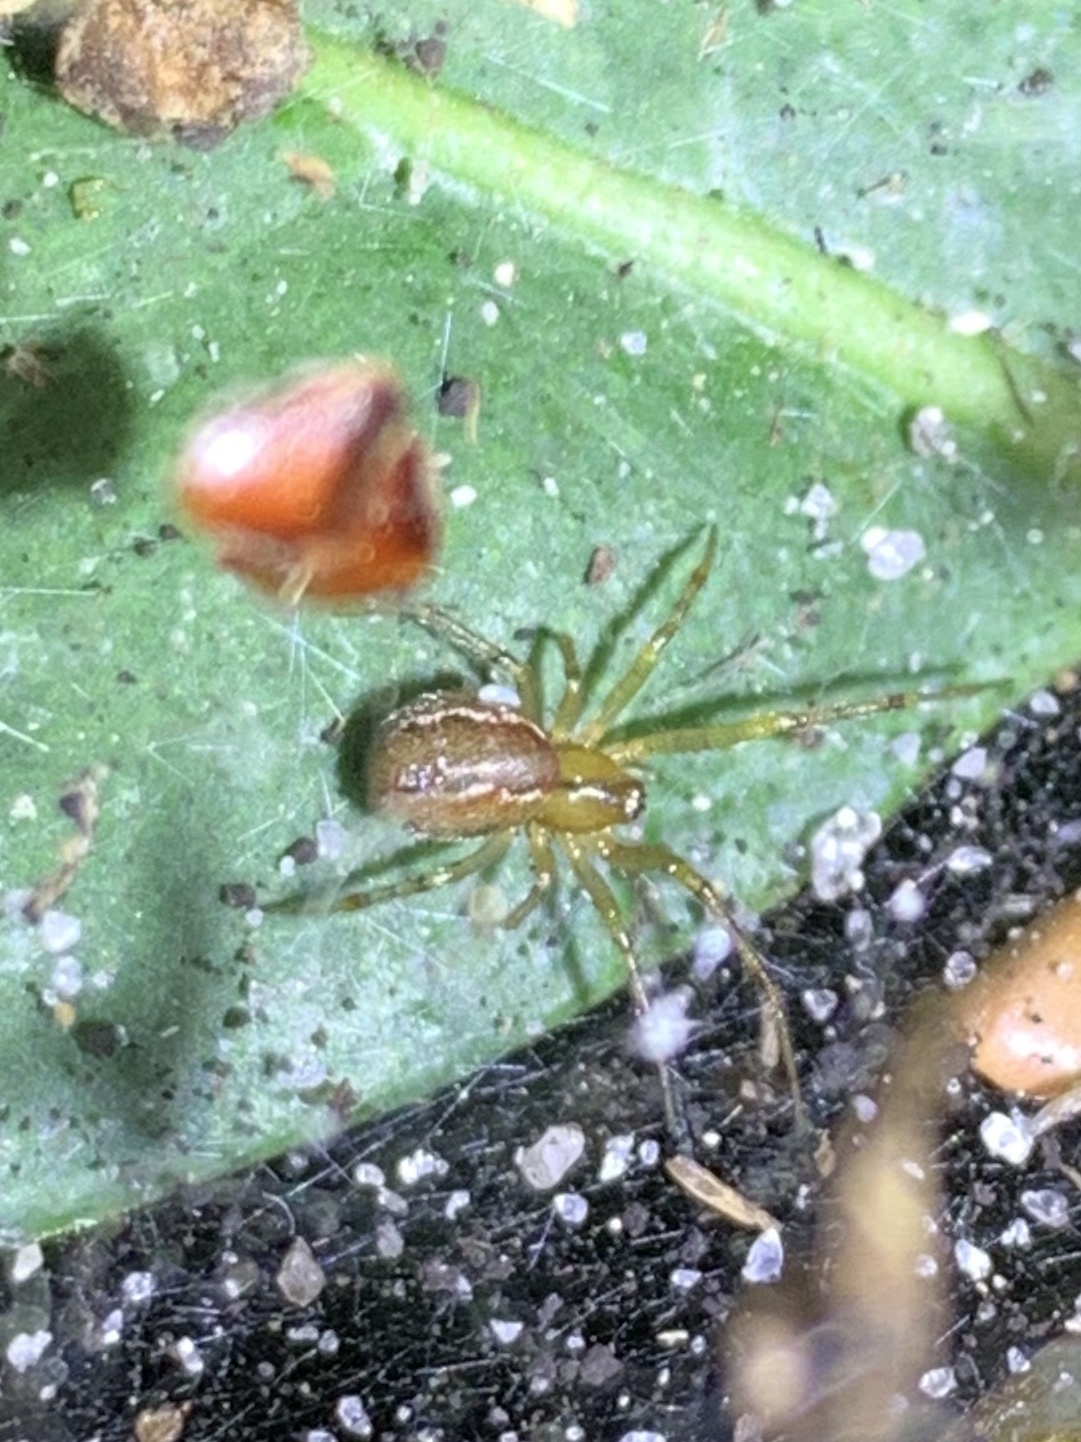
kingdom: Animalia
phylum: Arthropoda
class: Arachnida
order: Araneae
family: Theridiidae
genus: Anelosimus
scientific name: Anelosimus studiosus
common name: Cobweb spiders
